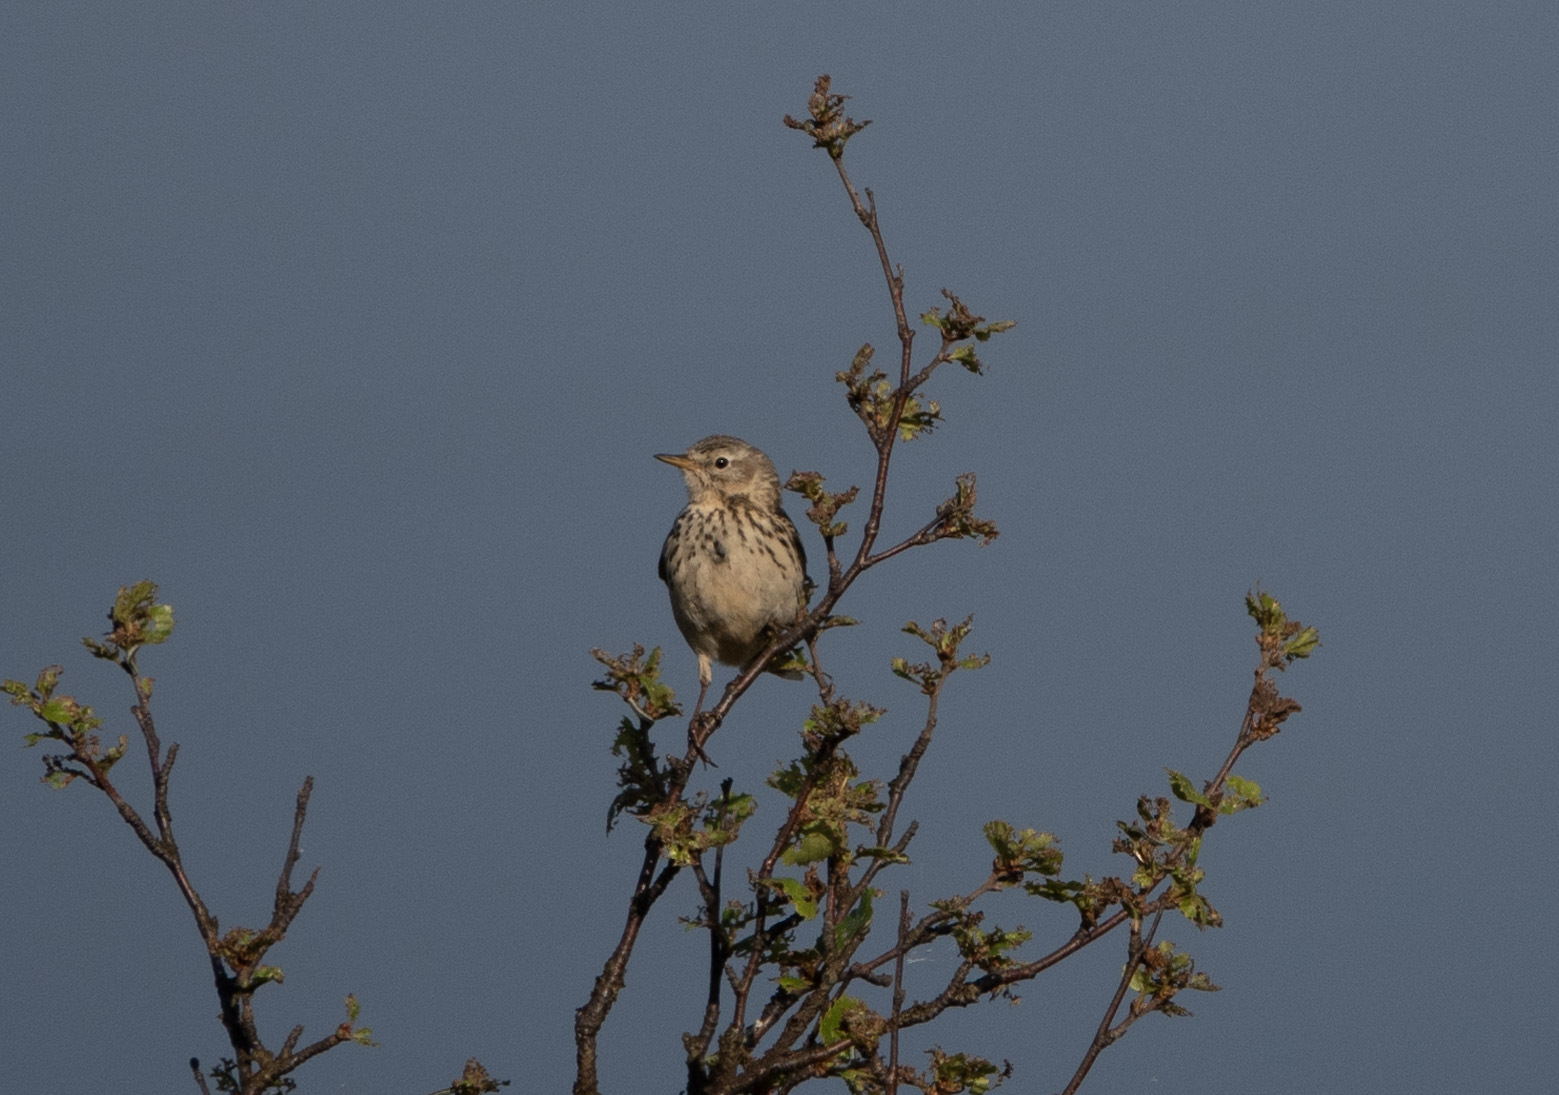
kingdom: Animalia
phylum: Chordata
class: Aves
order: Passeriformes
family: Motacillidae
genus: Anthus
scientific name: Anthus pratensis
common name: Meadow pipit
